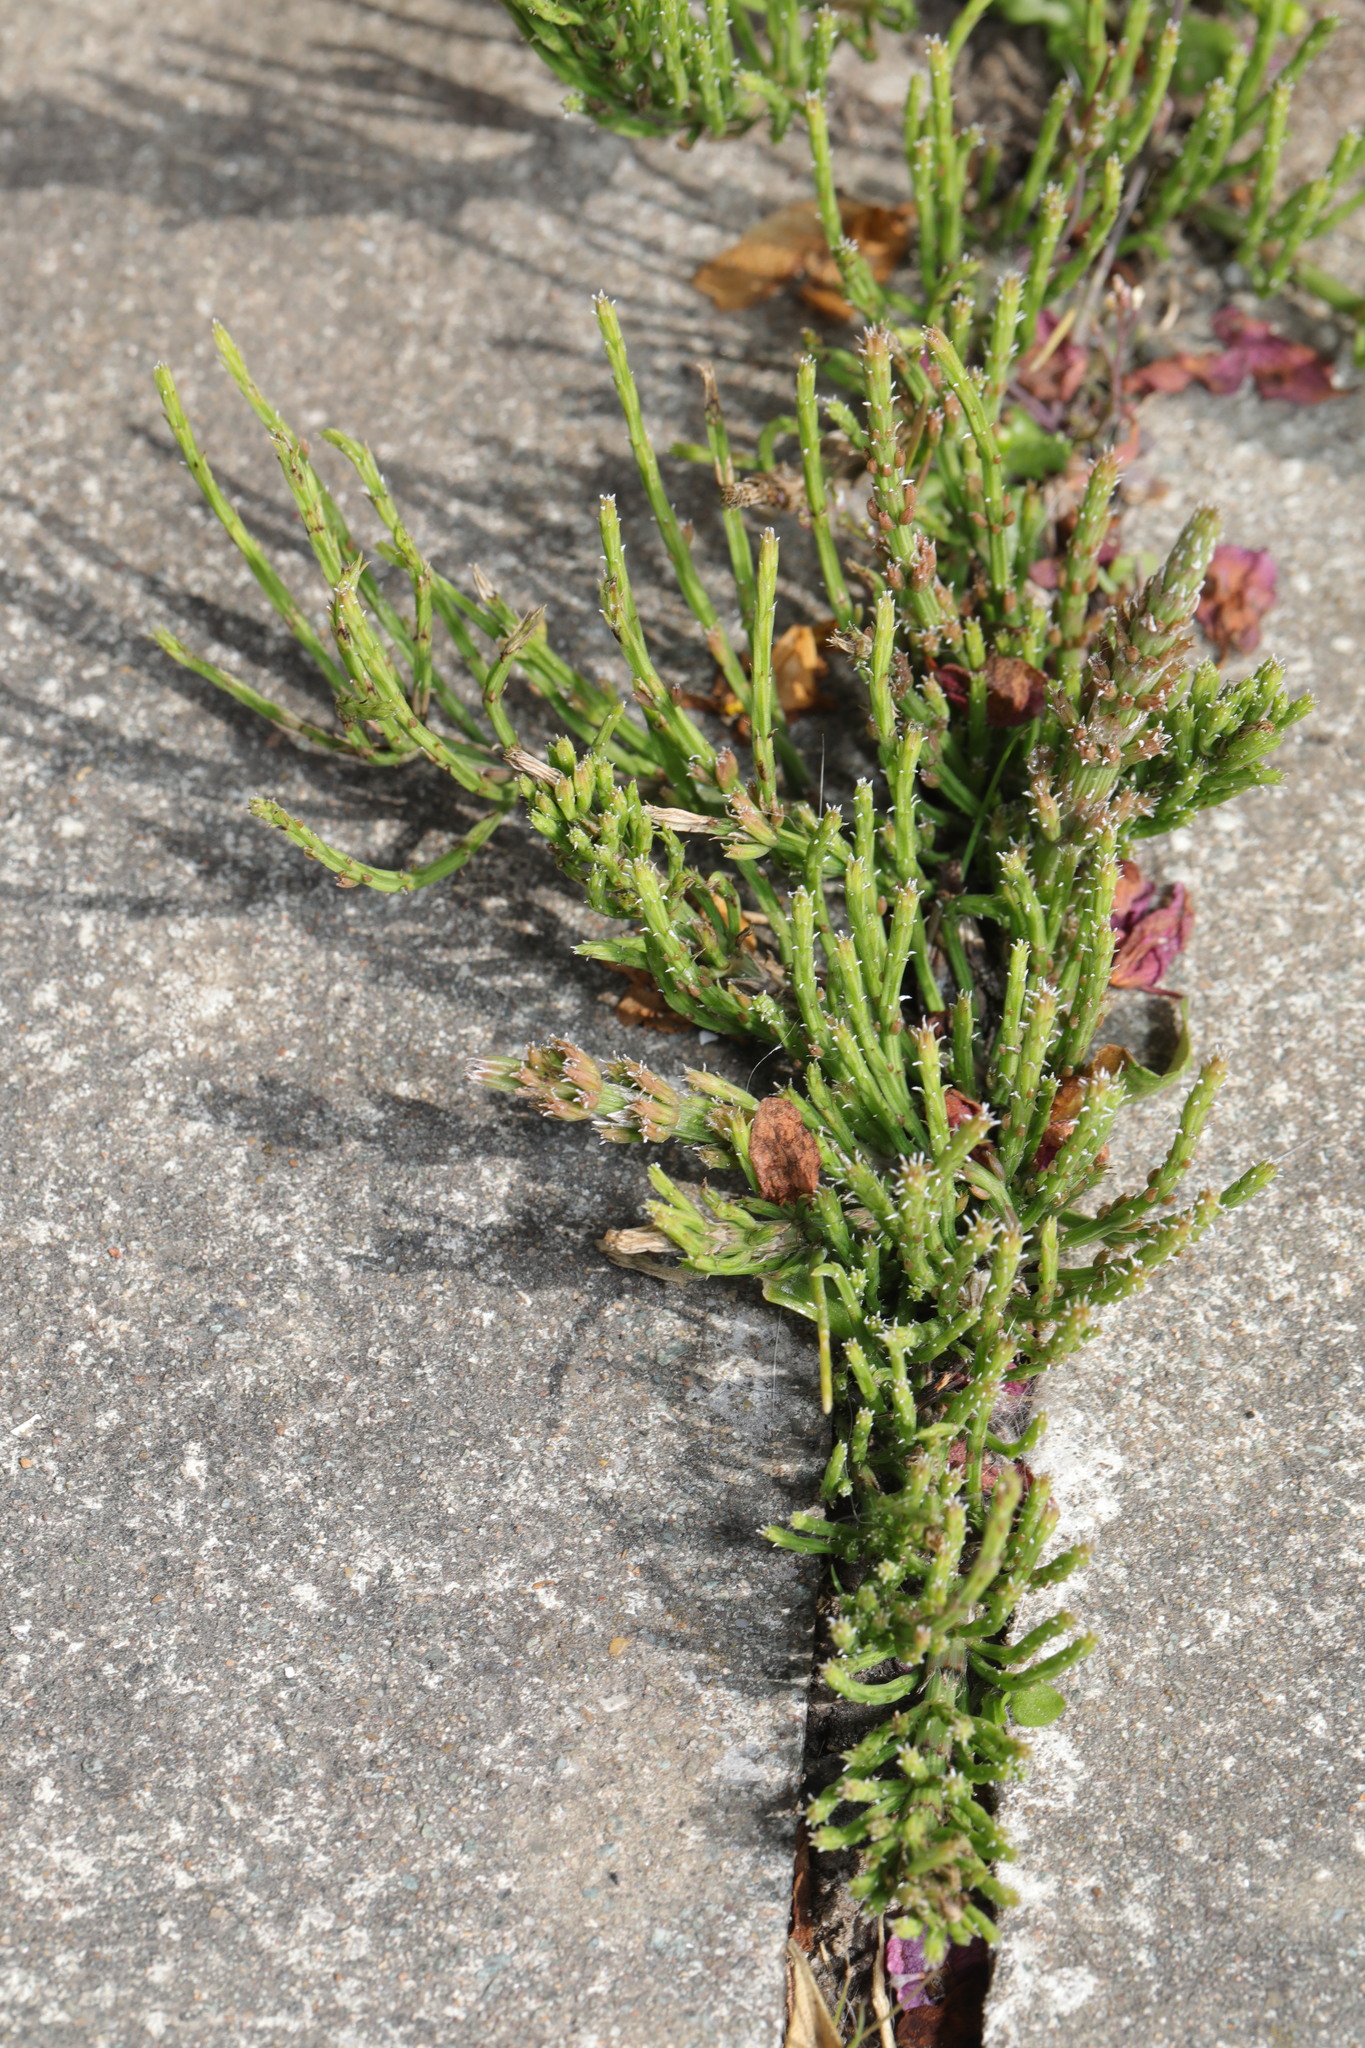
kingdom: Plantae
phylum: Tracheophyta
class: Polypodiopsida
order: Equisetales
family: Equisetaceae
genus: Equisetum
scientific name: Equisetum arvense
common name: Field horsetail
